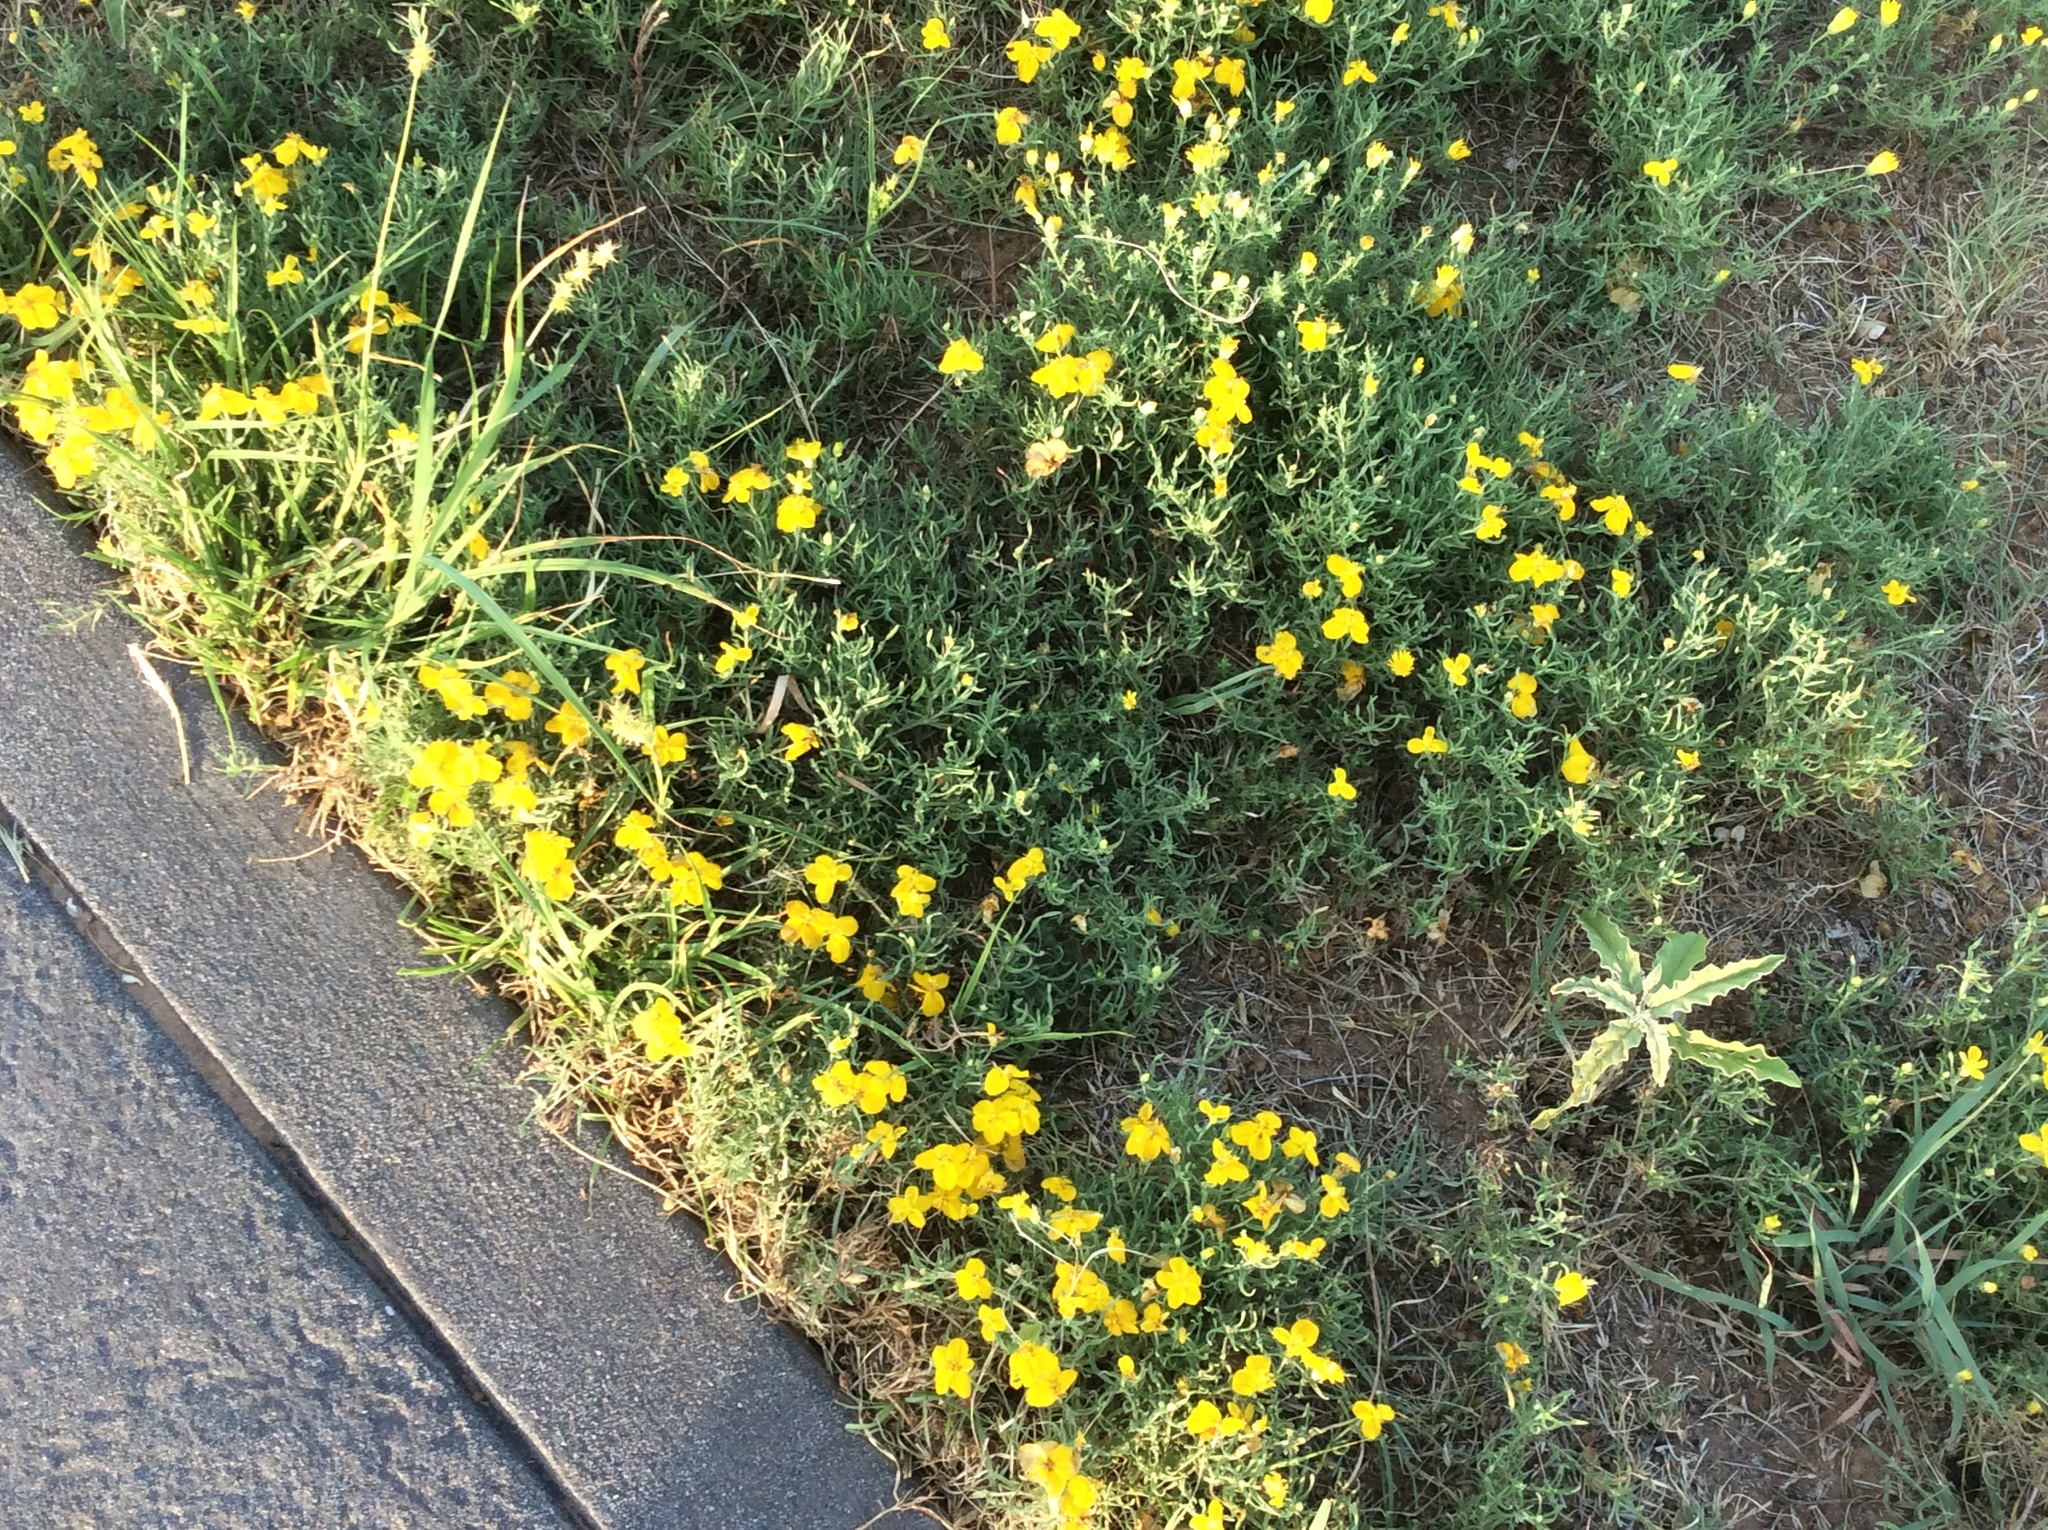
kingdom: Plantae
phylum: Tracheophyta
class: Magnoliopsida
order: Asterales
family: Asteraceae
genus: Zinnia
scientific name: Zinnia grandiflora
